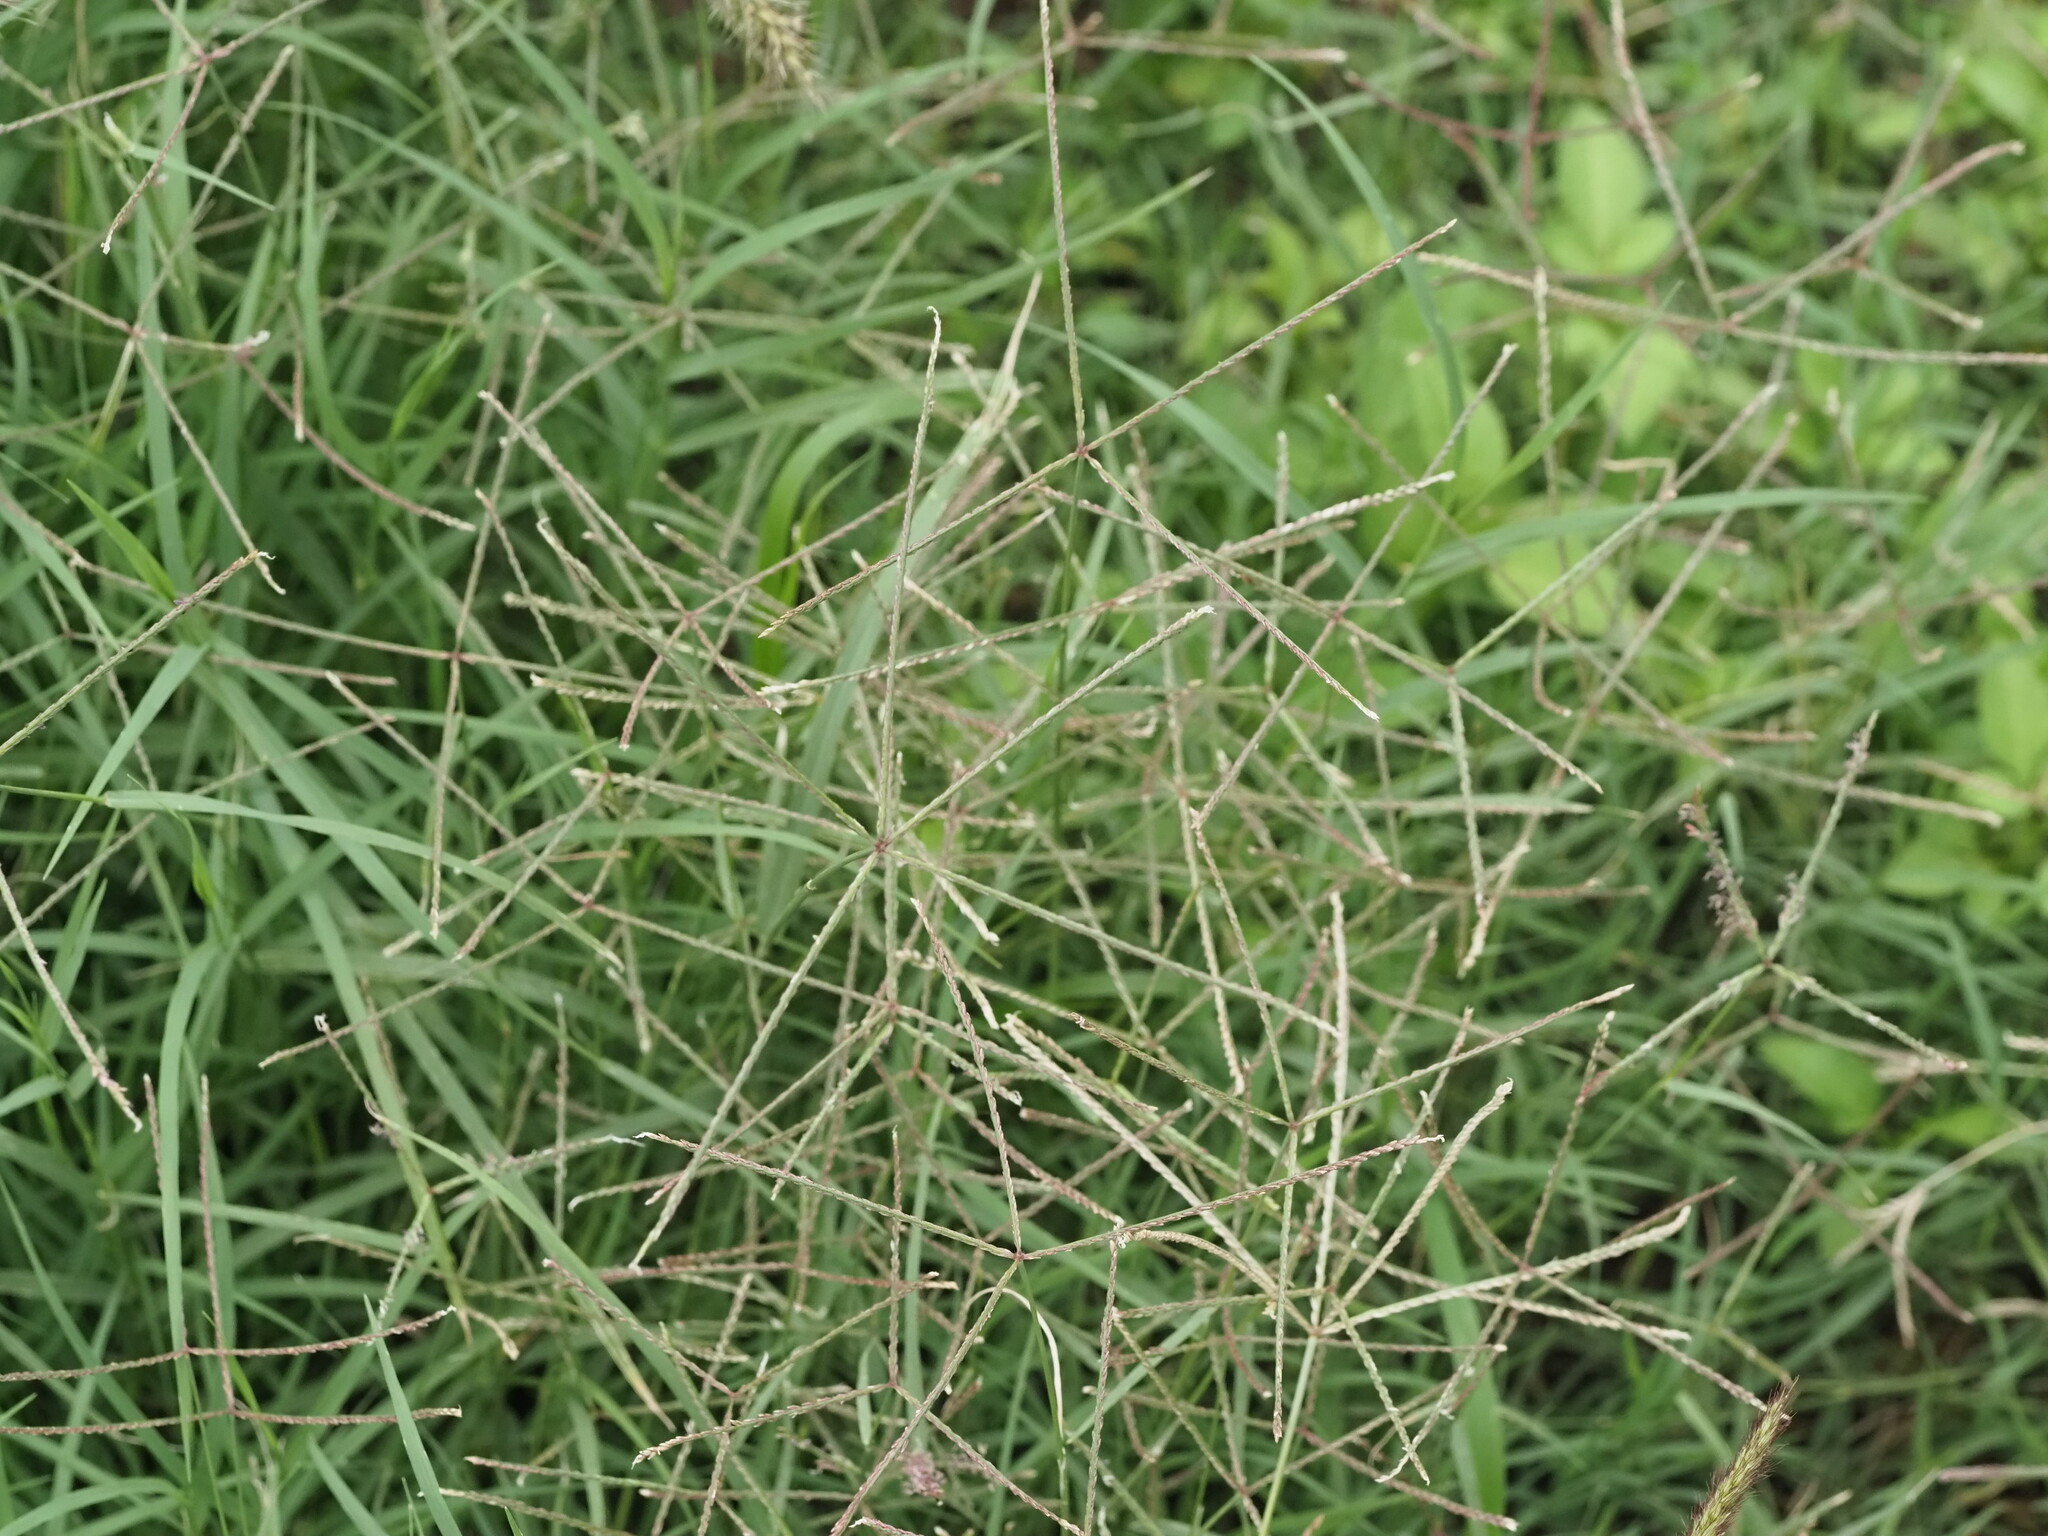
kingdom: Plantae
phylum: Tracheophyta
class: Liliopsida
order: Poales
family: Poaceae
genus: Cynodon
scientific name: Cynodon dactylon
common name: Bermuda grass
